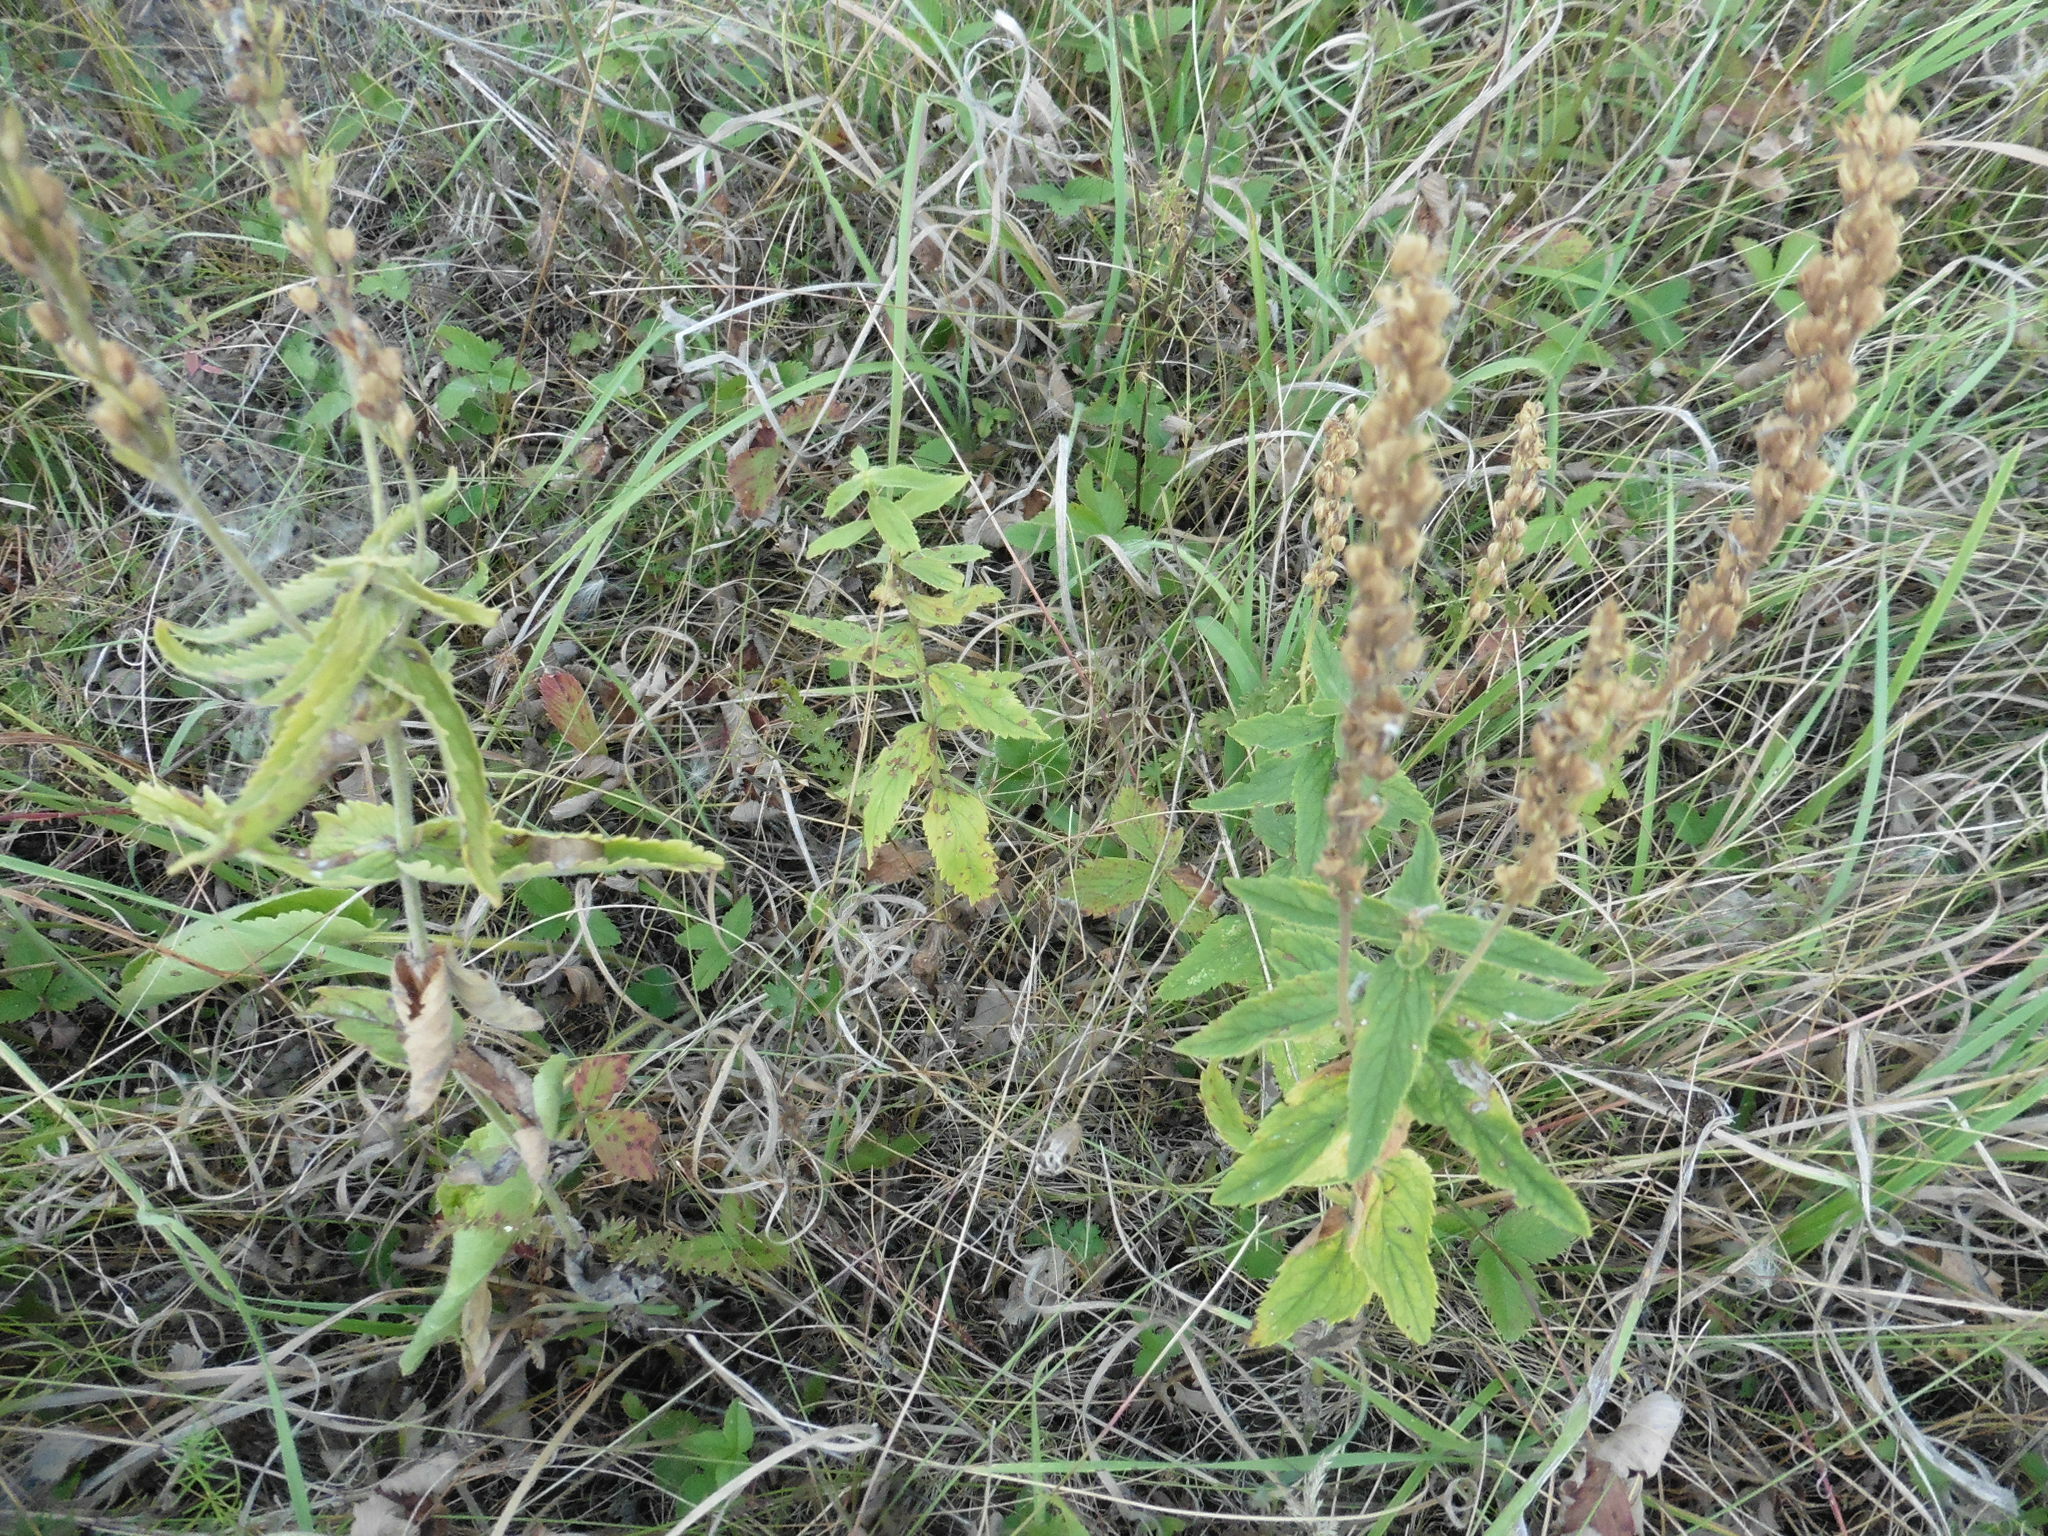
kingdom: Plantae
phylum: Tracheophyta
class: Magnoliopsida
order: Lamiales
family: Plantaginaceae
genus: Veronica
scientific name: Veronica teucrium
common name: Large speedwell
